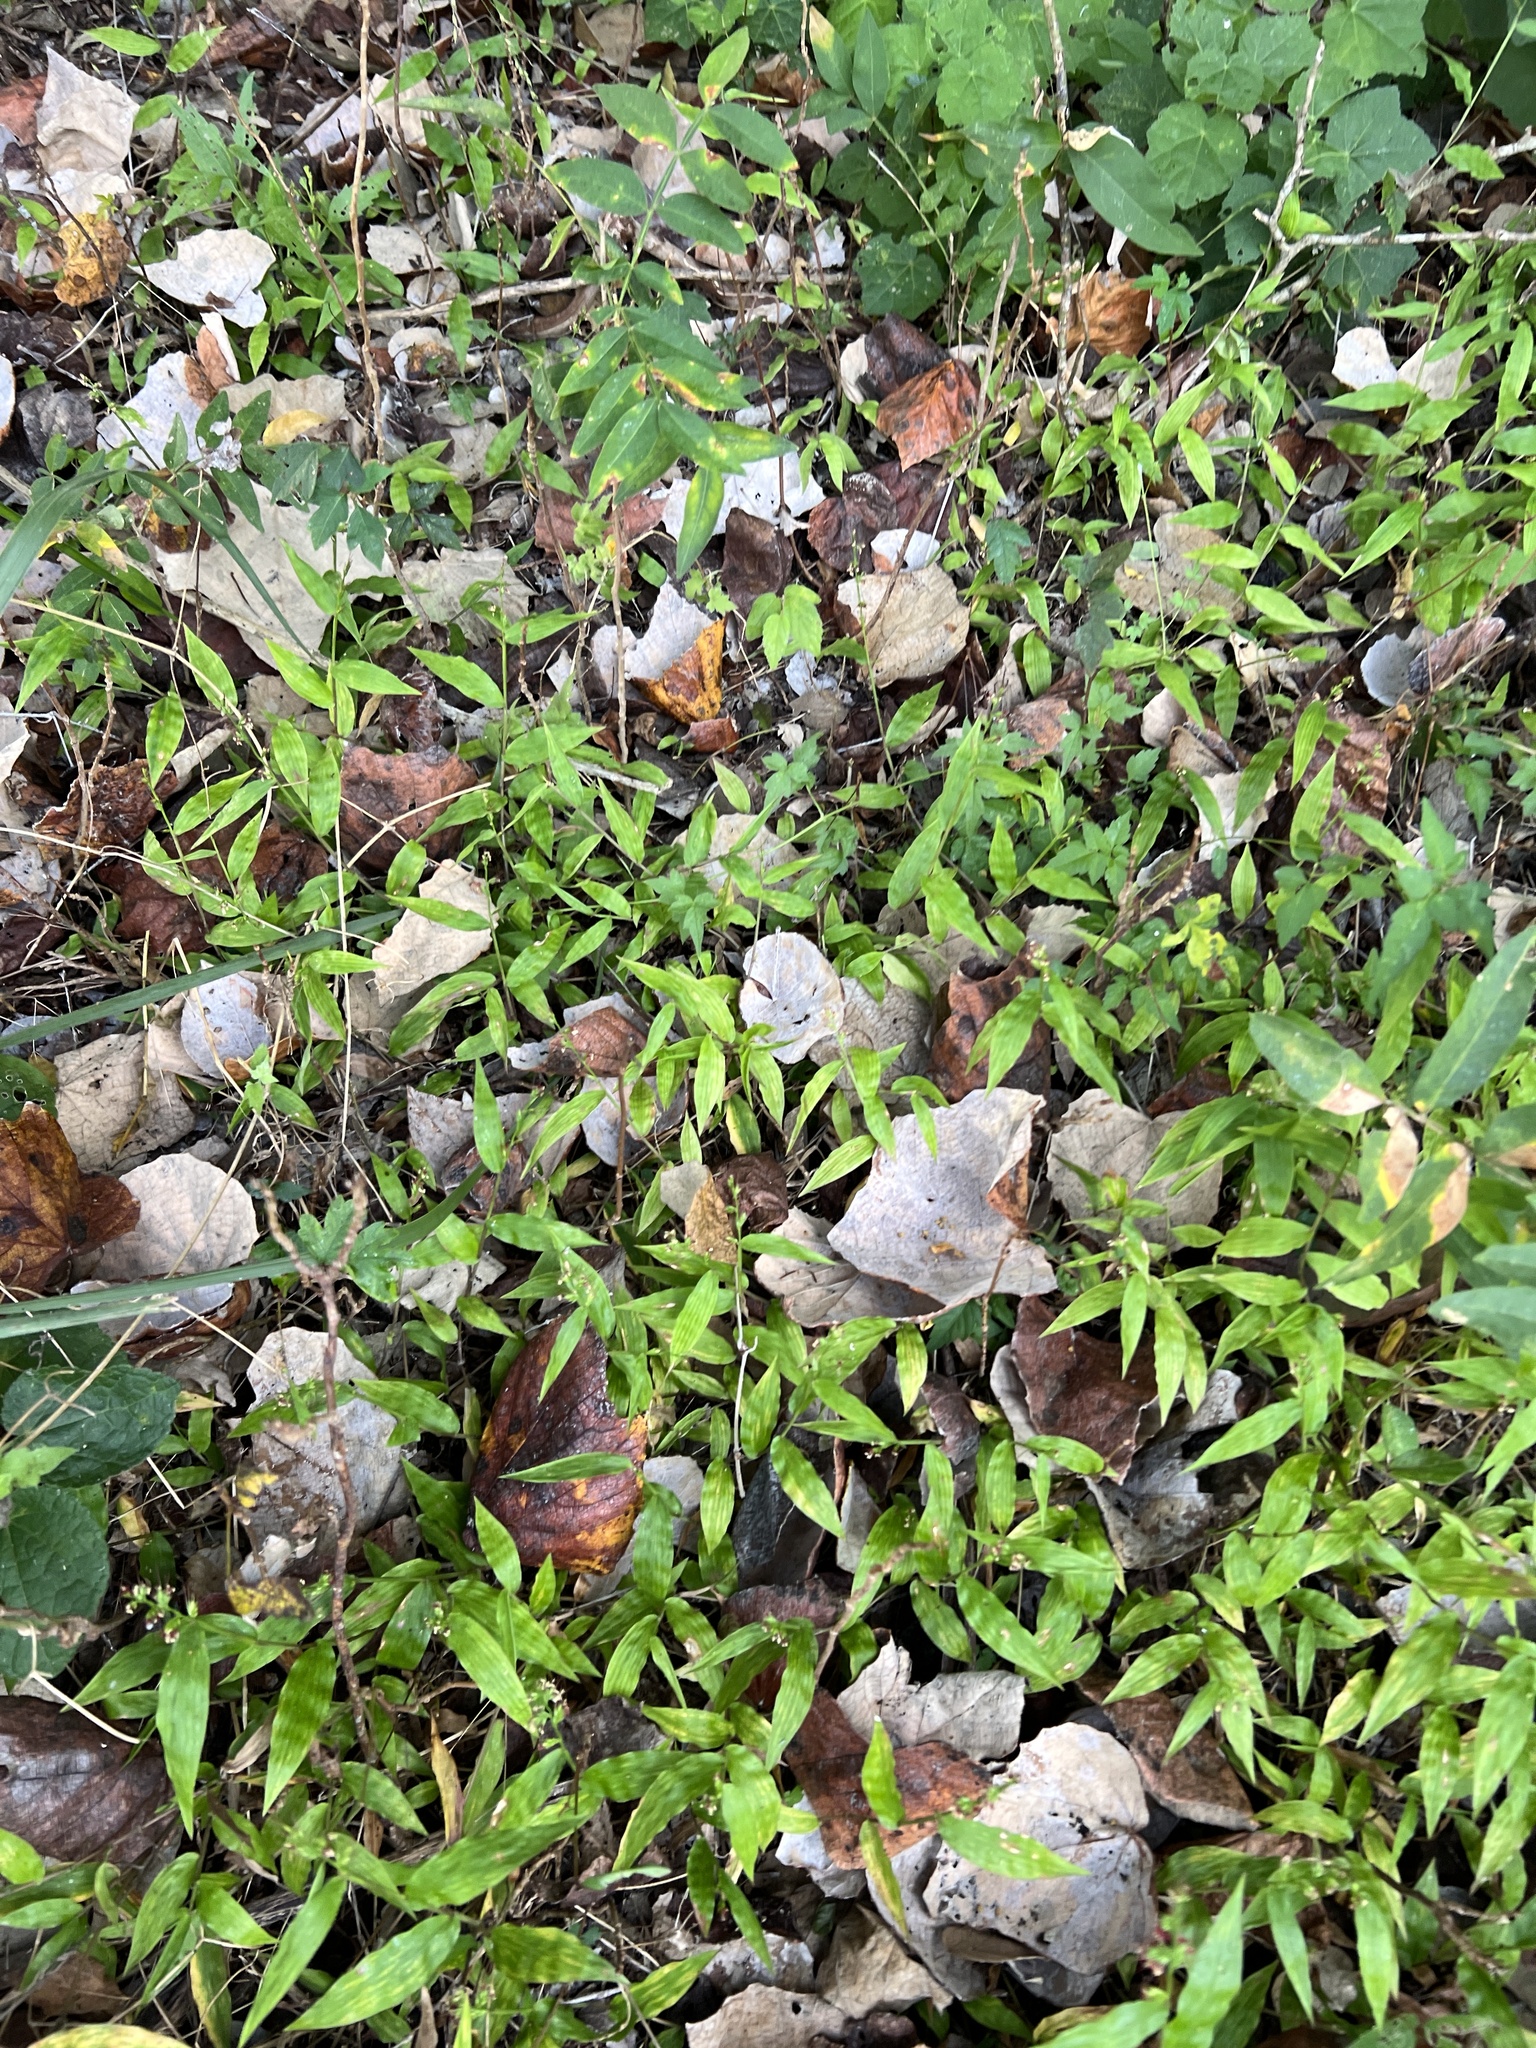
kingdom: Plantae
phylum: Tracheophyta
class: Liliopsida
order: Poales
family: Poaceae
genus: Oplismenus
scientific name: Oplismenus hirtellus
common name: Basketgrass
